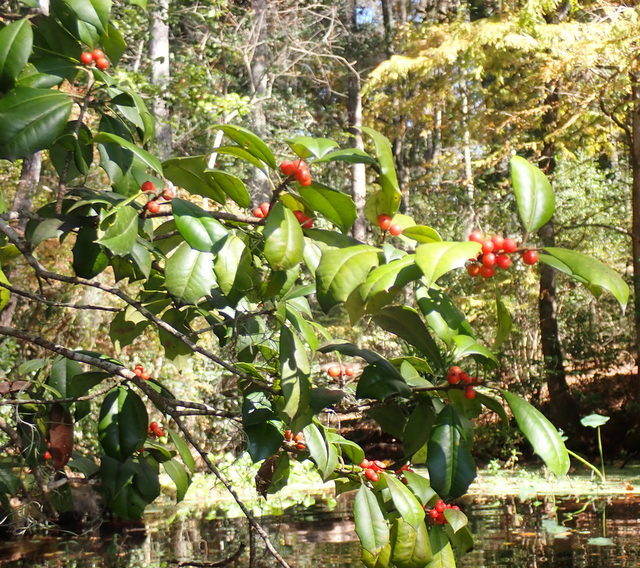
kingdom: Plantae
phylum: Tracheophyta
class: Magnoliopsida
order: Aquifoliales
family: Aquifoliaceae
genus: Ilex
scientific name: Ilex opaca
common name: American holly
